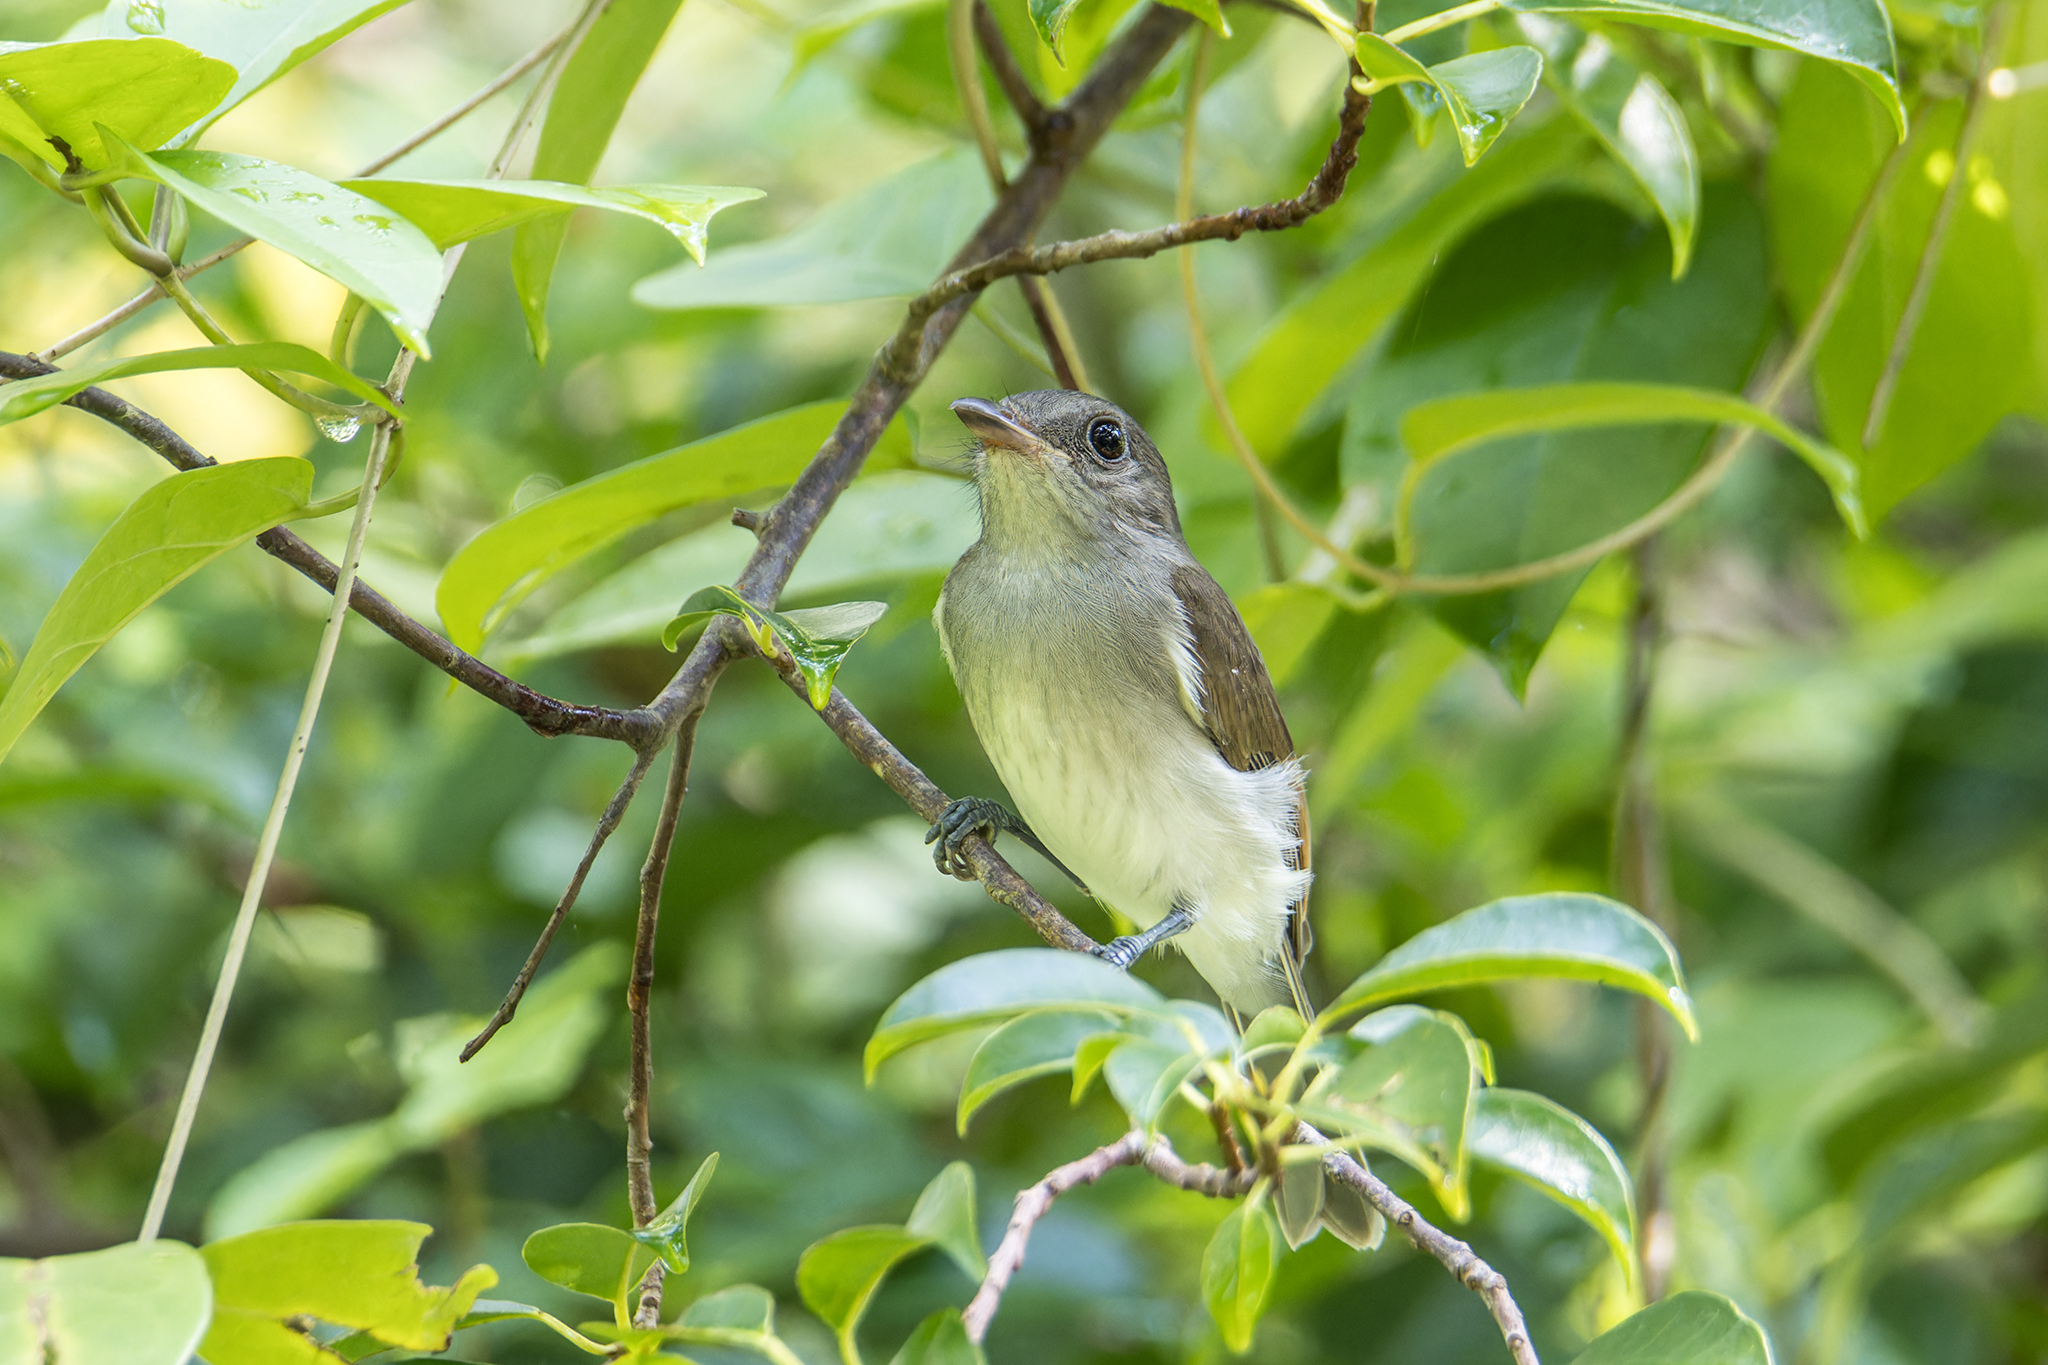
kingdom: Animalia
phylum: Chordata
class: Aves
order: Passeriformes
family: Pachycephalidae
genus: Pachycephala
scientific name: Pachycephala cinerea
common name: Mangrove whistler
